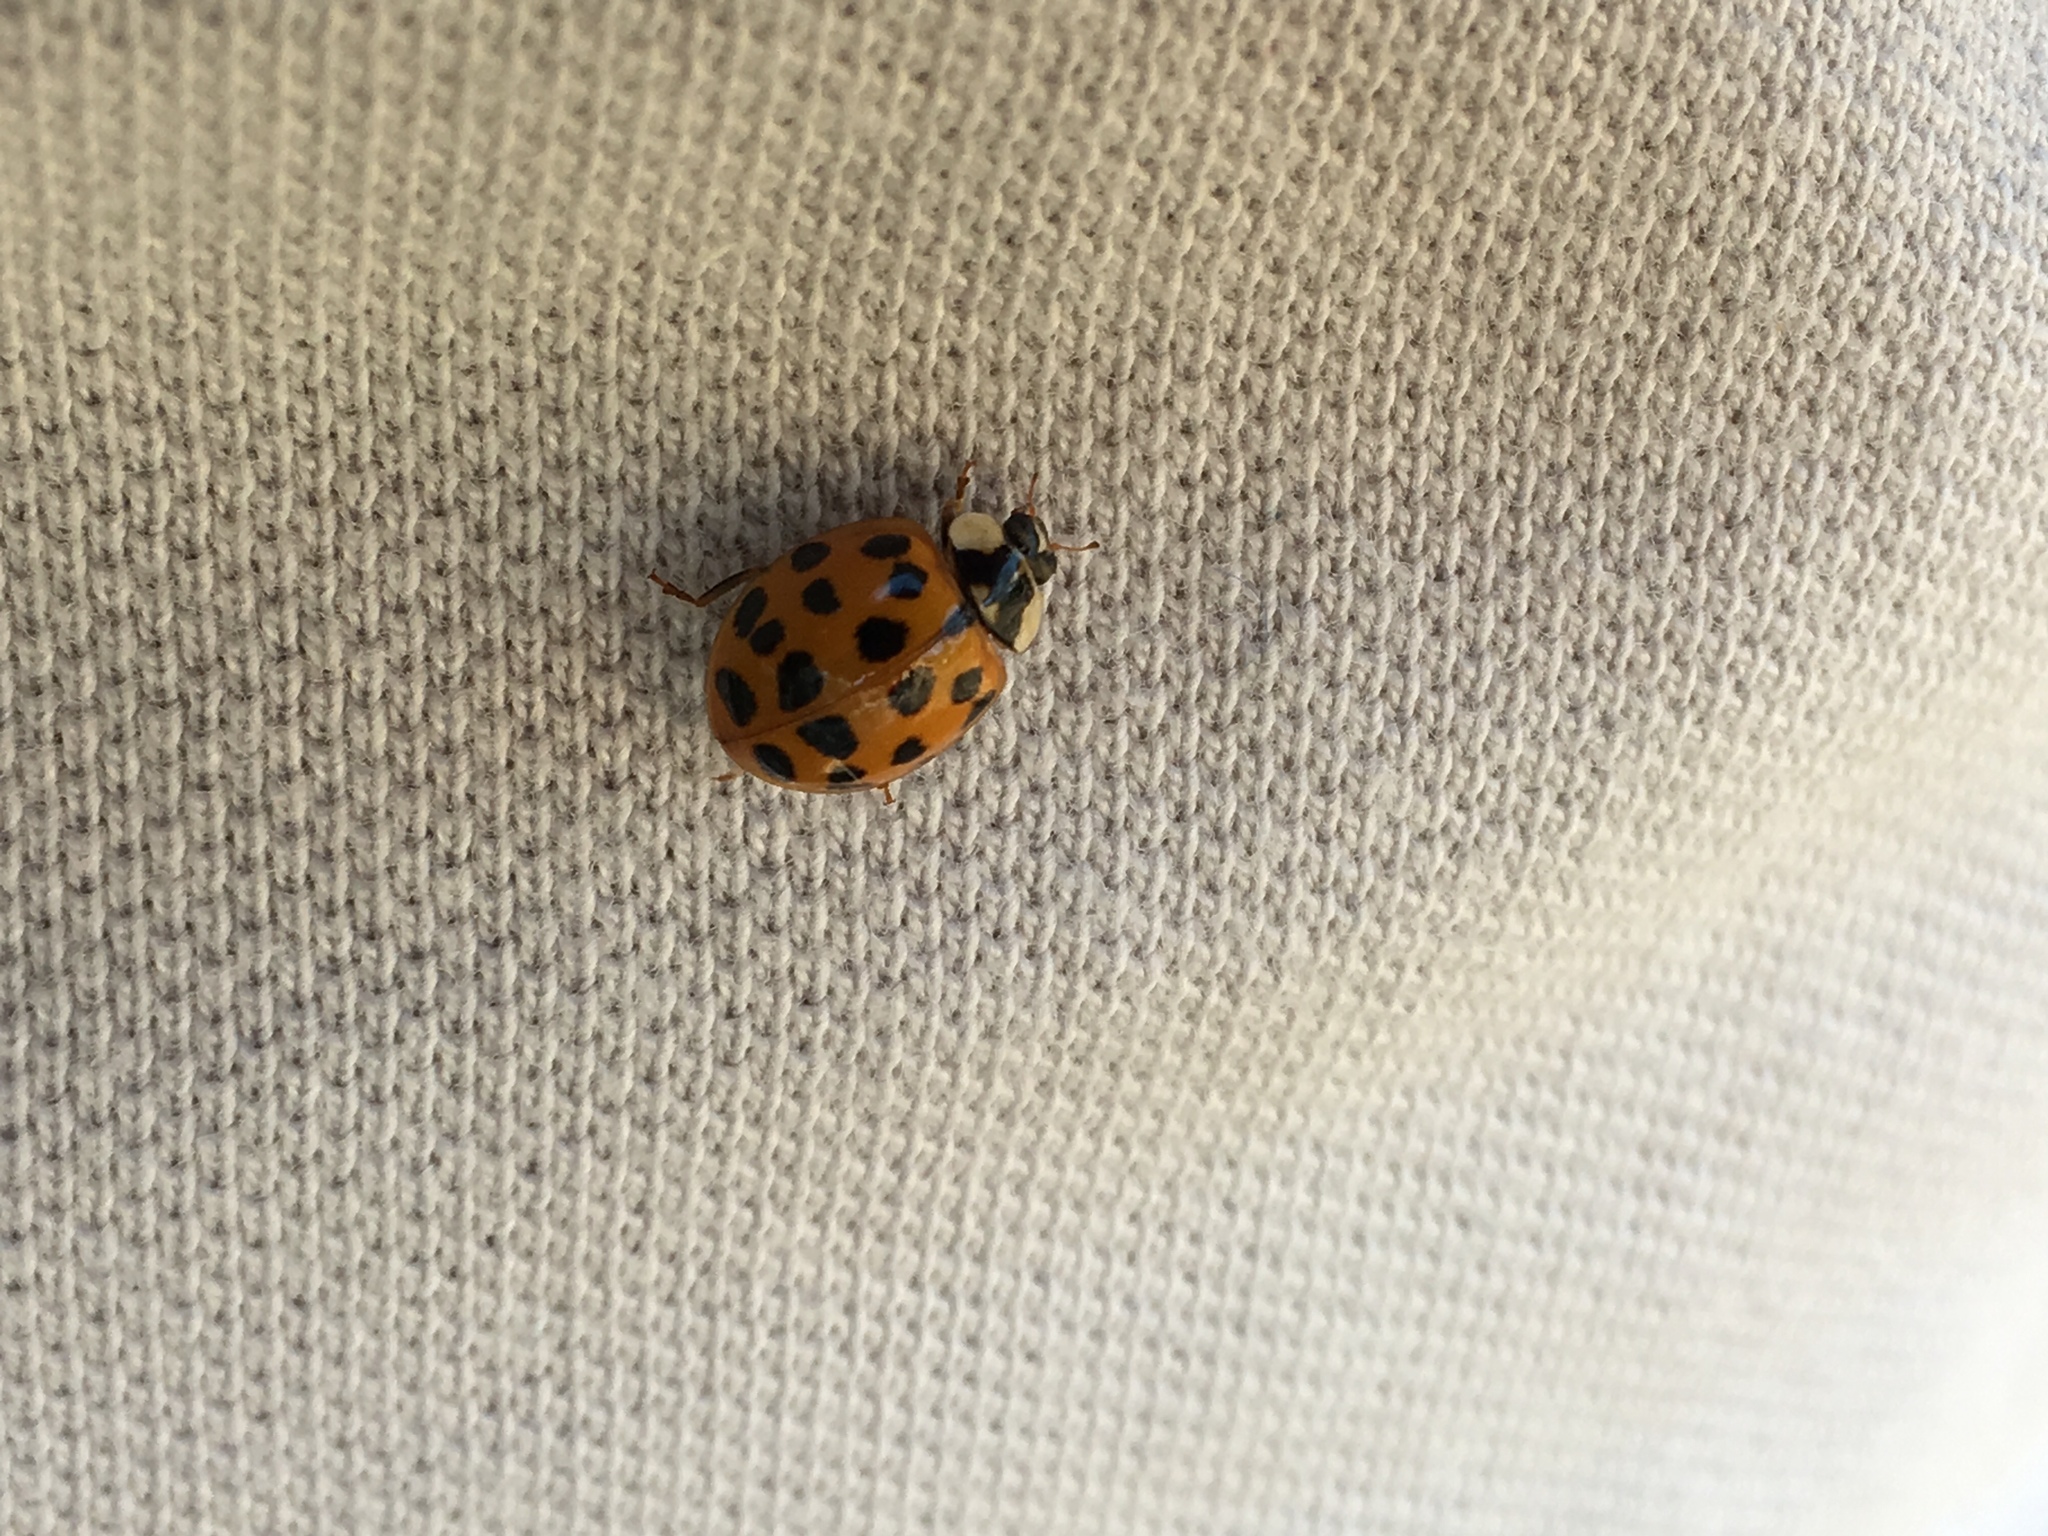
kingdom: Animalia
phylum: Arthropoda
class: Insecta
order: Coleoptera
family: Coccinellidae
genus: Harmonia
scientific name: Harmonia axyridis
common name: Harlequin ladybird
